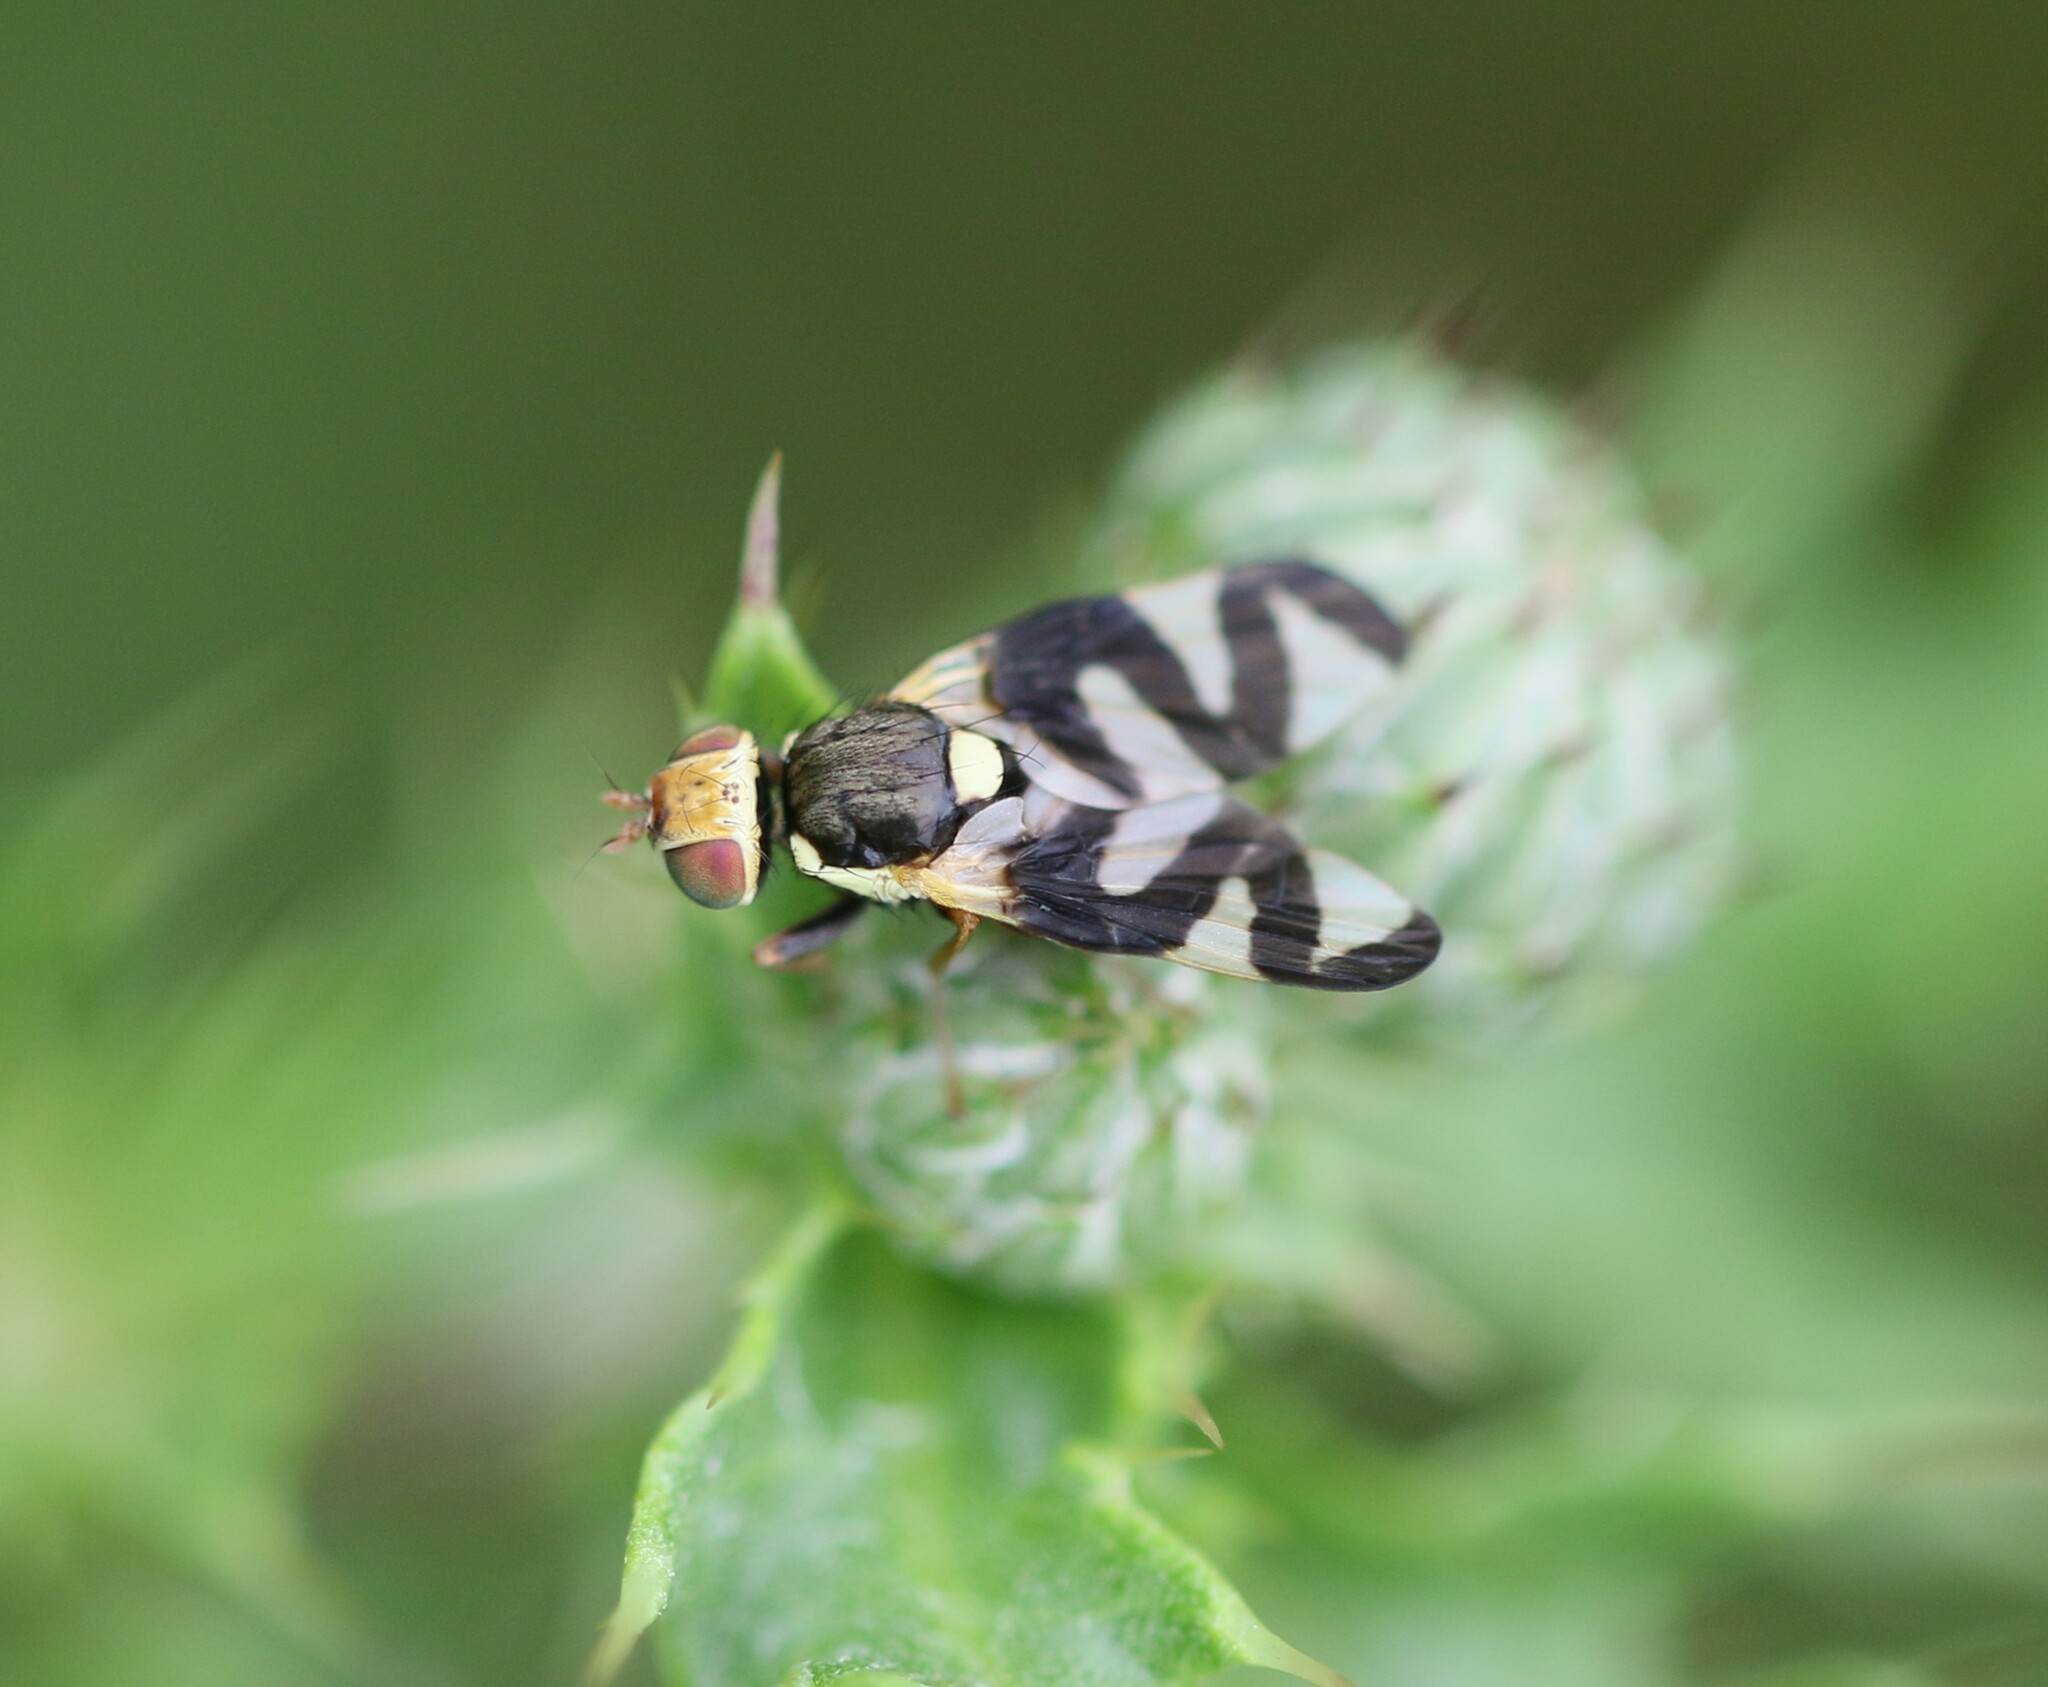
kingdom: Animalia
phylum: Arthropoda
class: Insecta
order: Diptera
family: Tephritidae
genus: Urophora
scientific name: Urophora cardui
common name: Fruit fly
